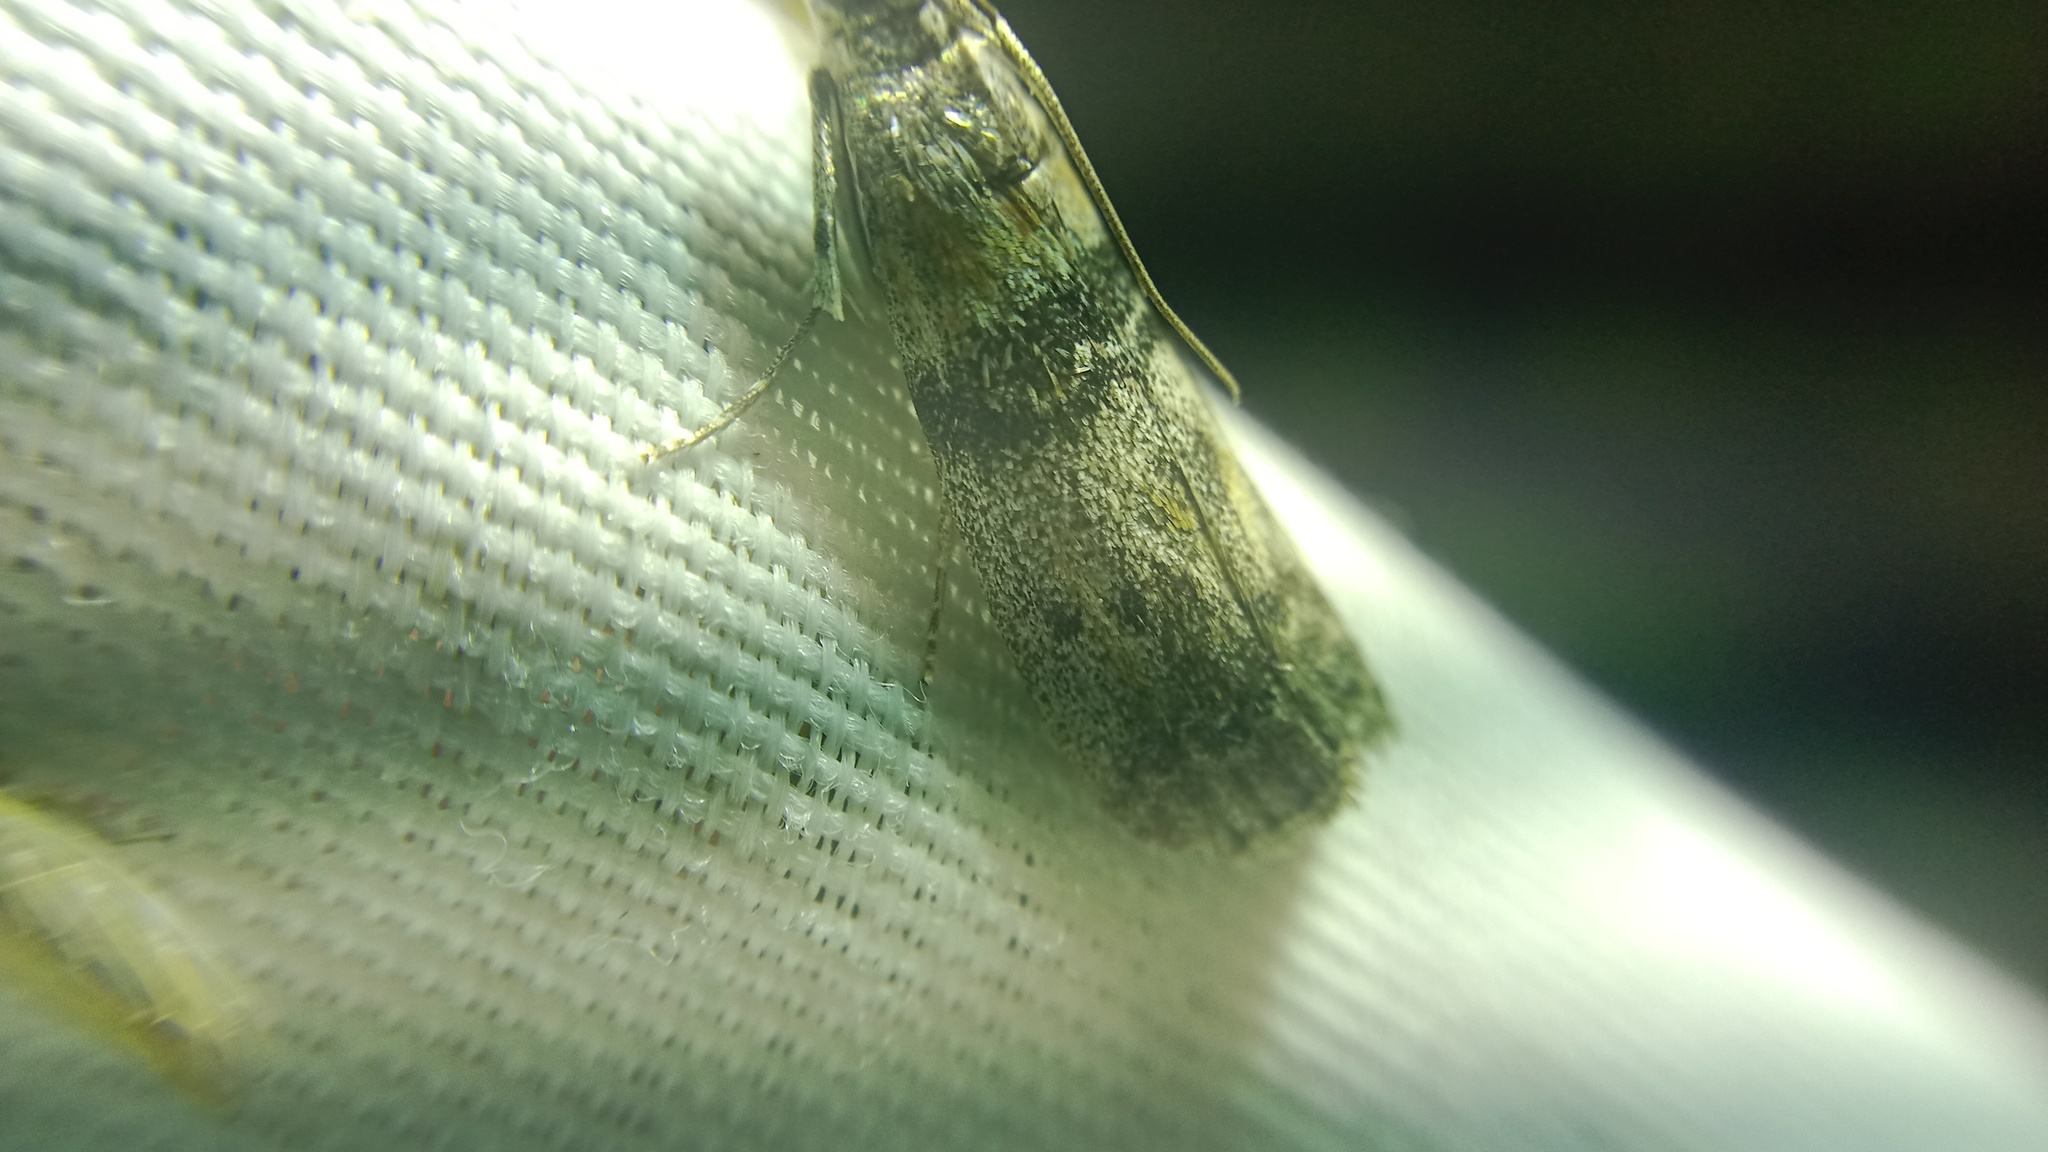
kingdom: Animalia
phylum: Arthropoda
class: Insecta
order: Lepidoptera
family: Pyralidae
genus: Sciota
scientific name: Sciota rhenella
